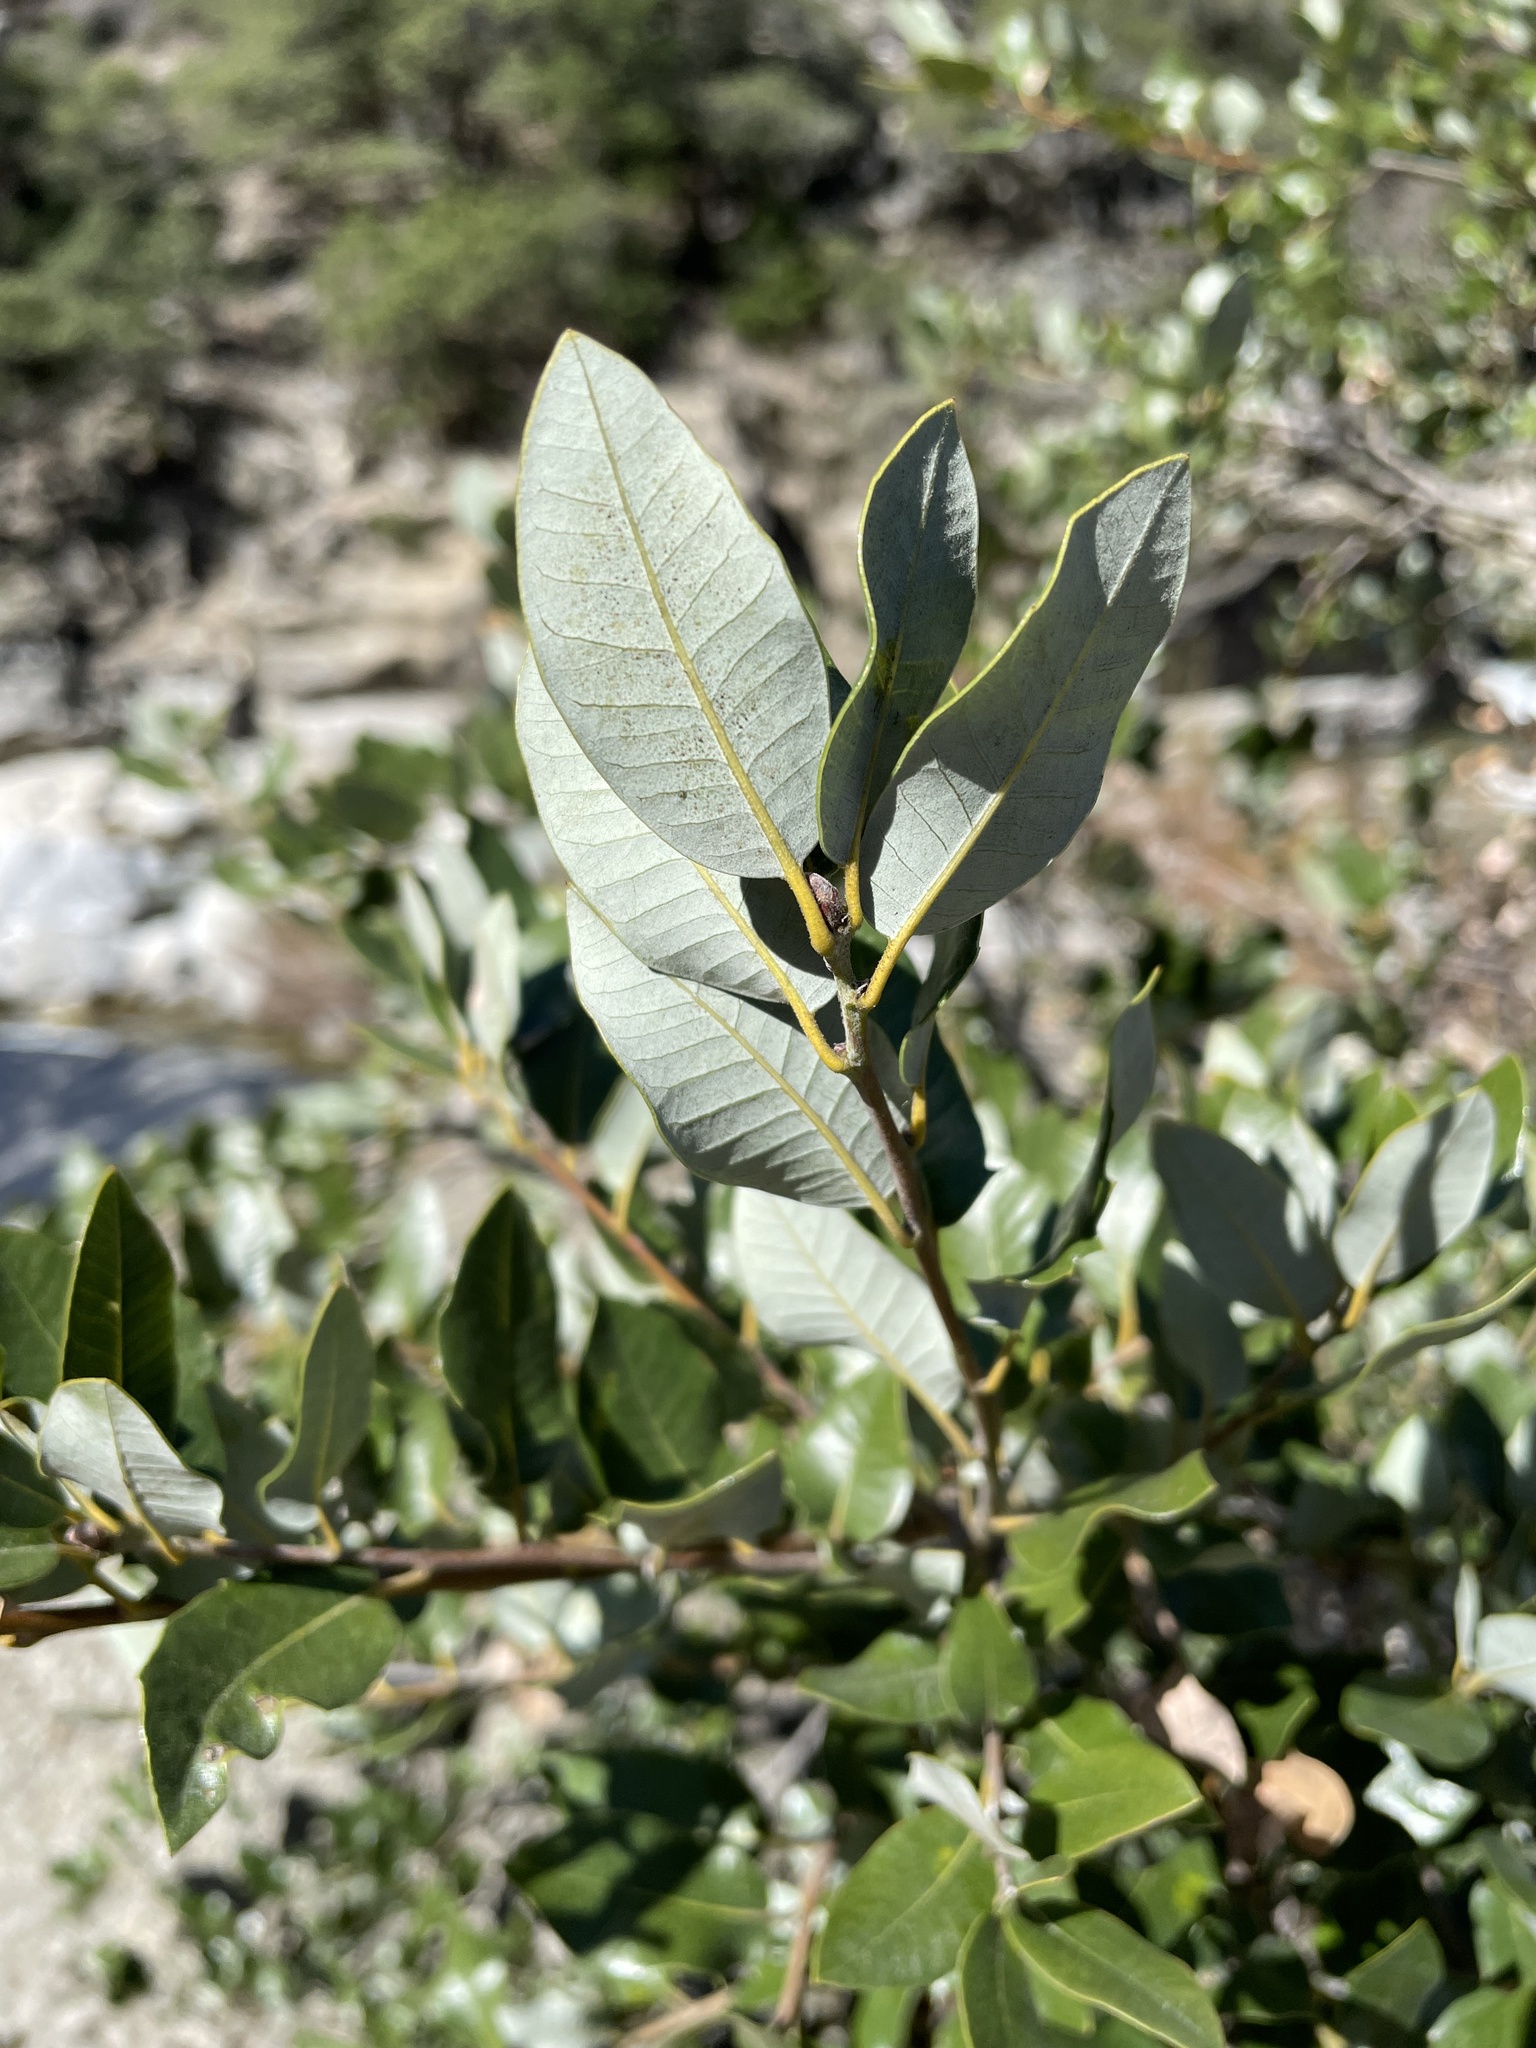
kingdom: Plantae
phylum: Tracheophyta
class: Magnoliopsida
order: Fagales
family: Fagaceae
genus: Quercus
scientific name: Quercus chrysolepis
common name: Canyon live oak
